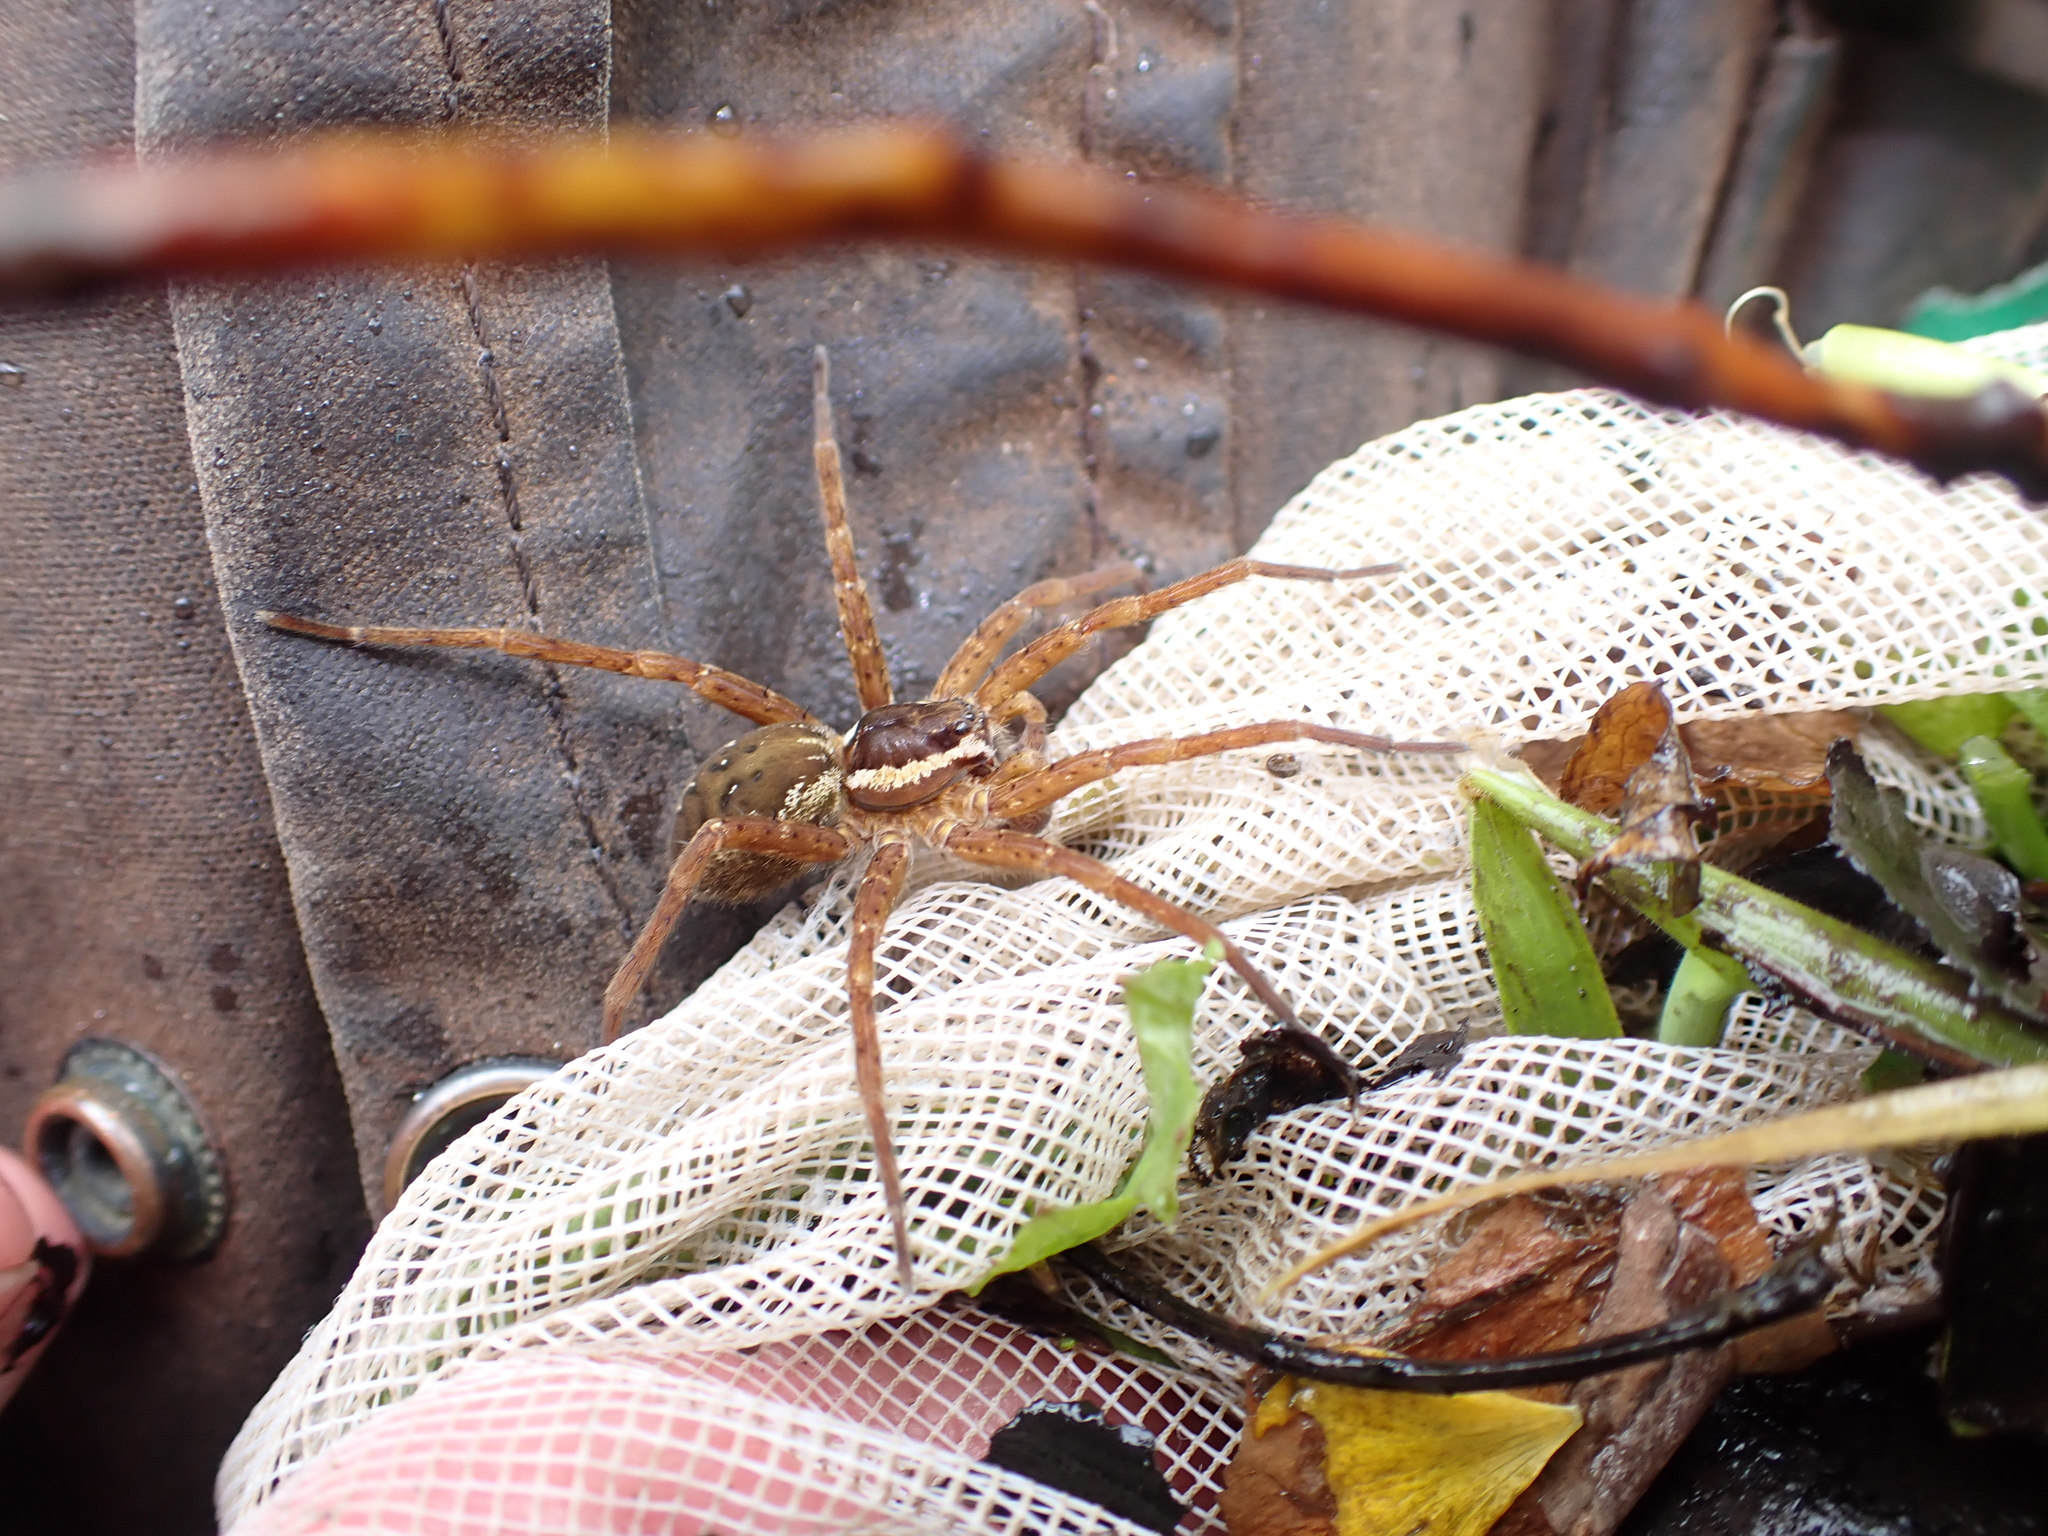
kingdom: Animalia
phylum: Arthropoda
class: Arachnida
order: Araneae
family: Pisauridae
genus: Dolomedes
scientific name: Dolomedes dondalei
